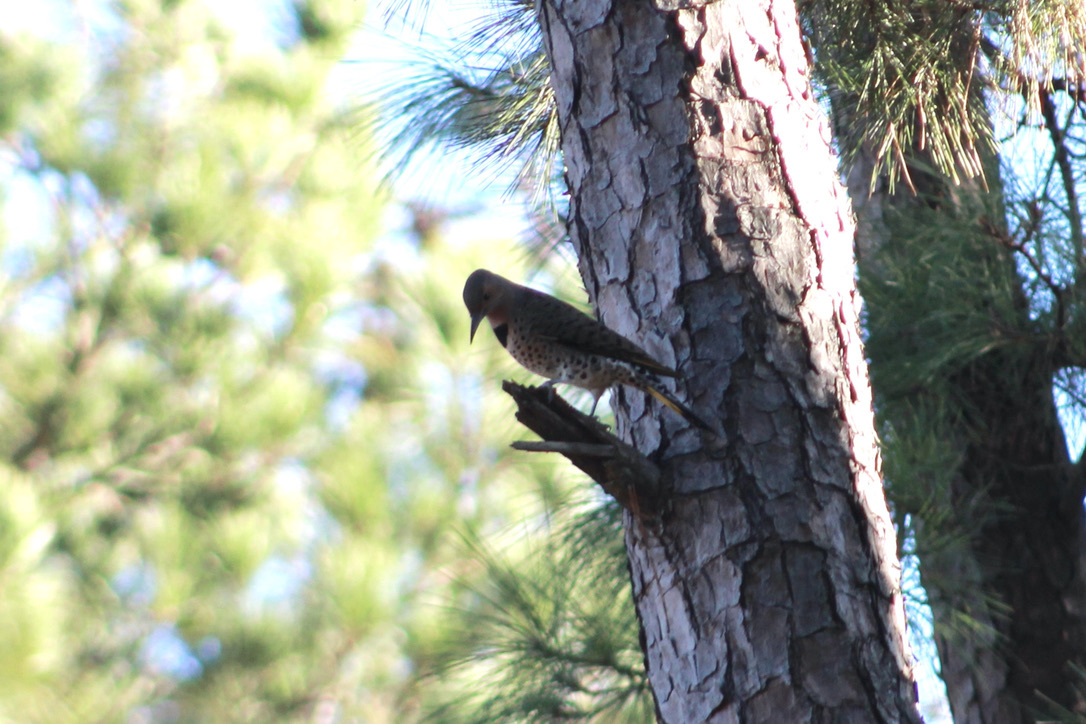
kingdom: Animalia
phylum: Chordata
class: Aves
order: Piciformes
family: Picidae
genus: Colaptes
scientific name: Colaptes auratus
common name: Northern flicker
